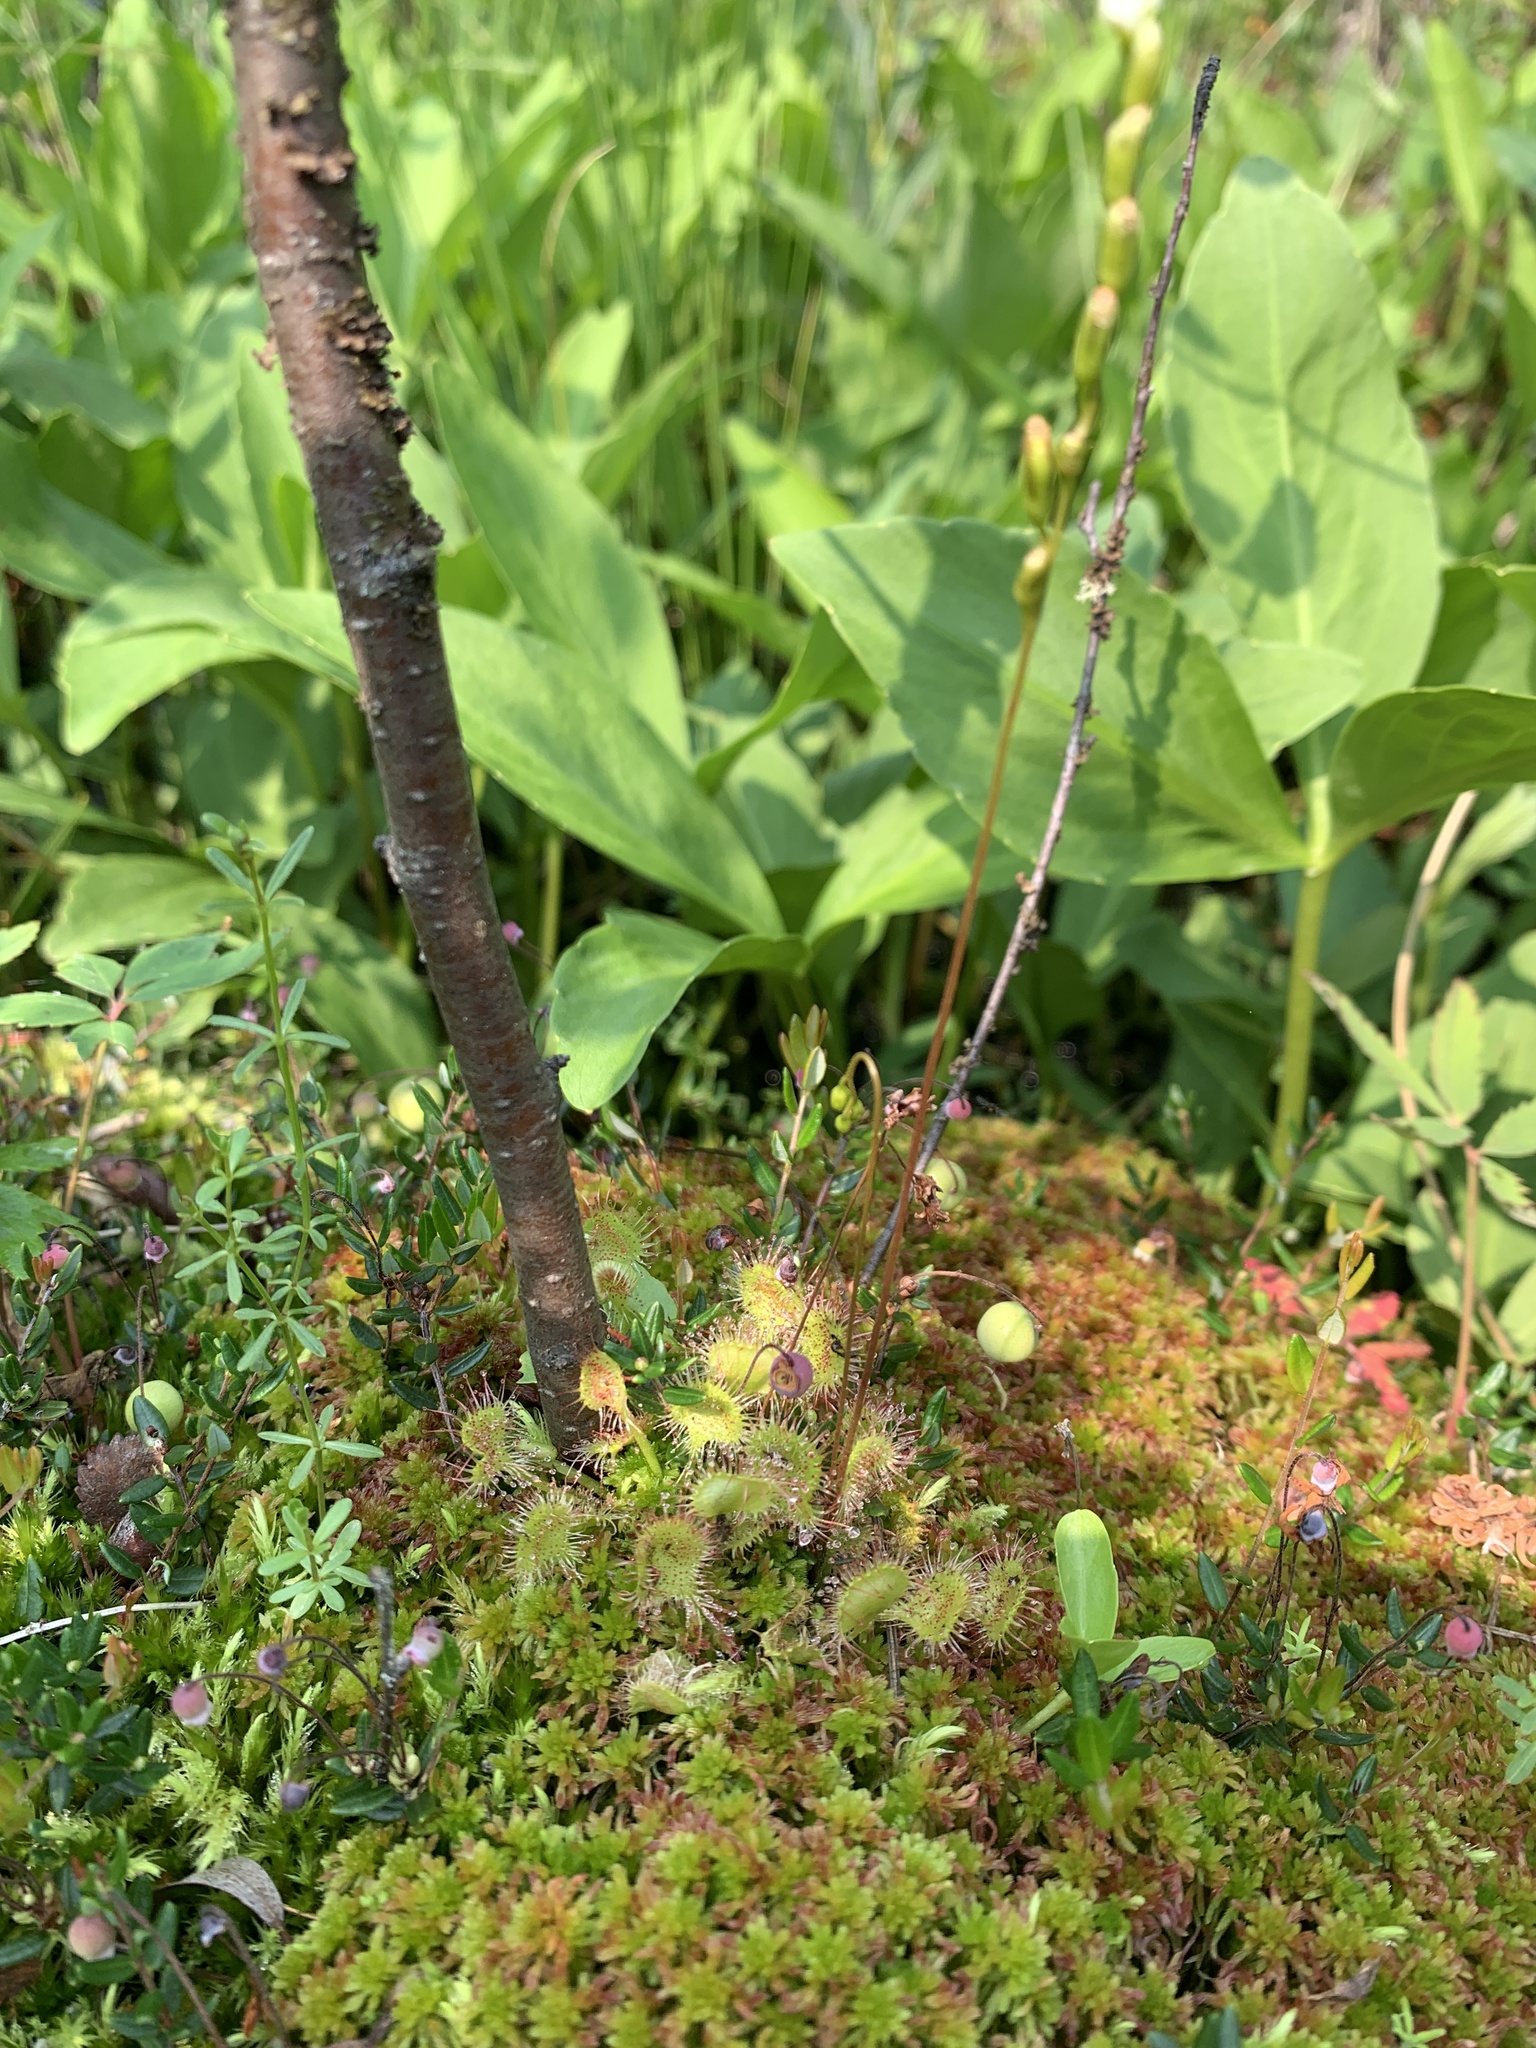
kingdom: Plantae
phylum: Tracheophyta
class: Magnoliopsida
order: Asterales
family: Menyanthaceae
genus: Menyanthes
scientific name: Menyanthes trifoliata
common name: Bogbean
